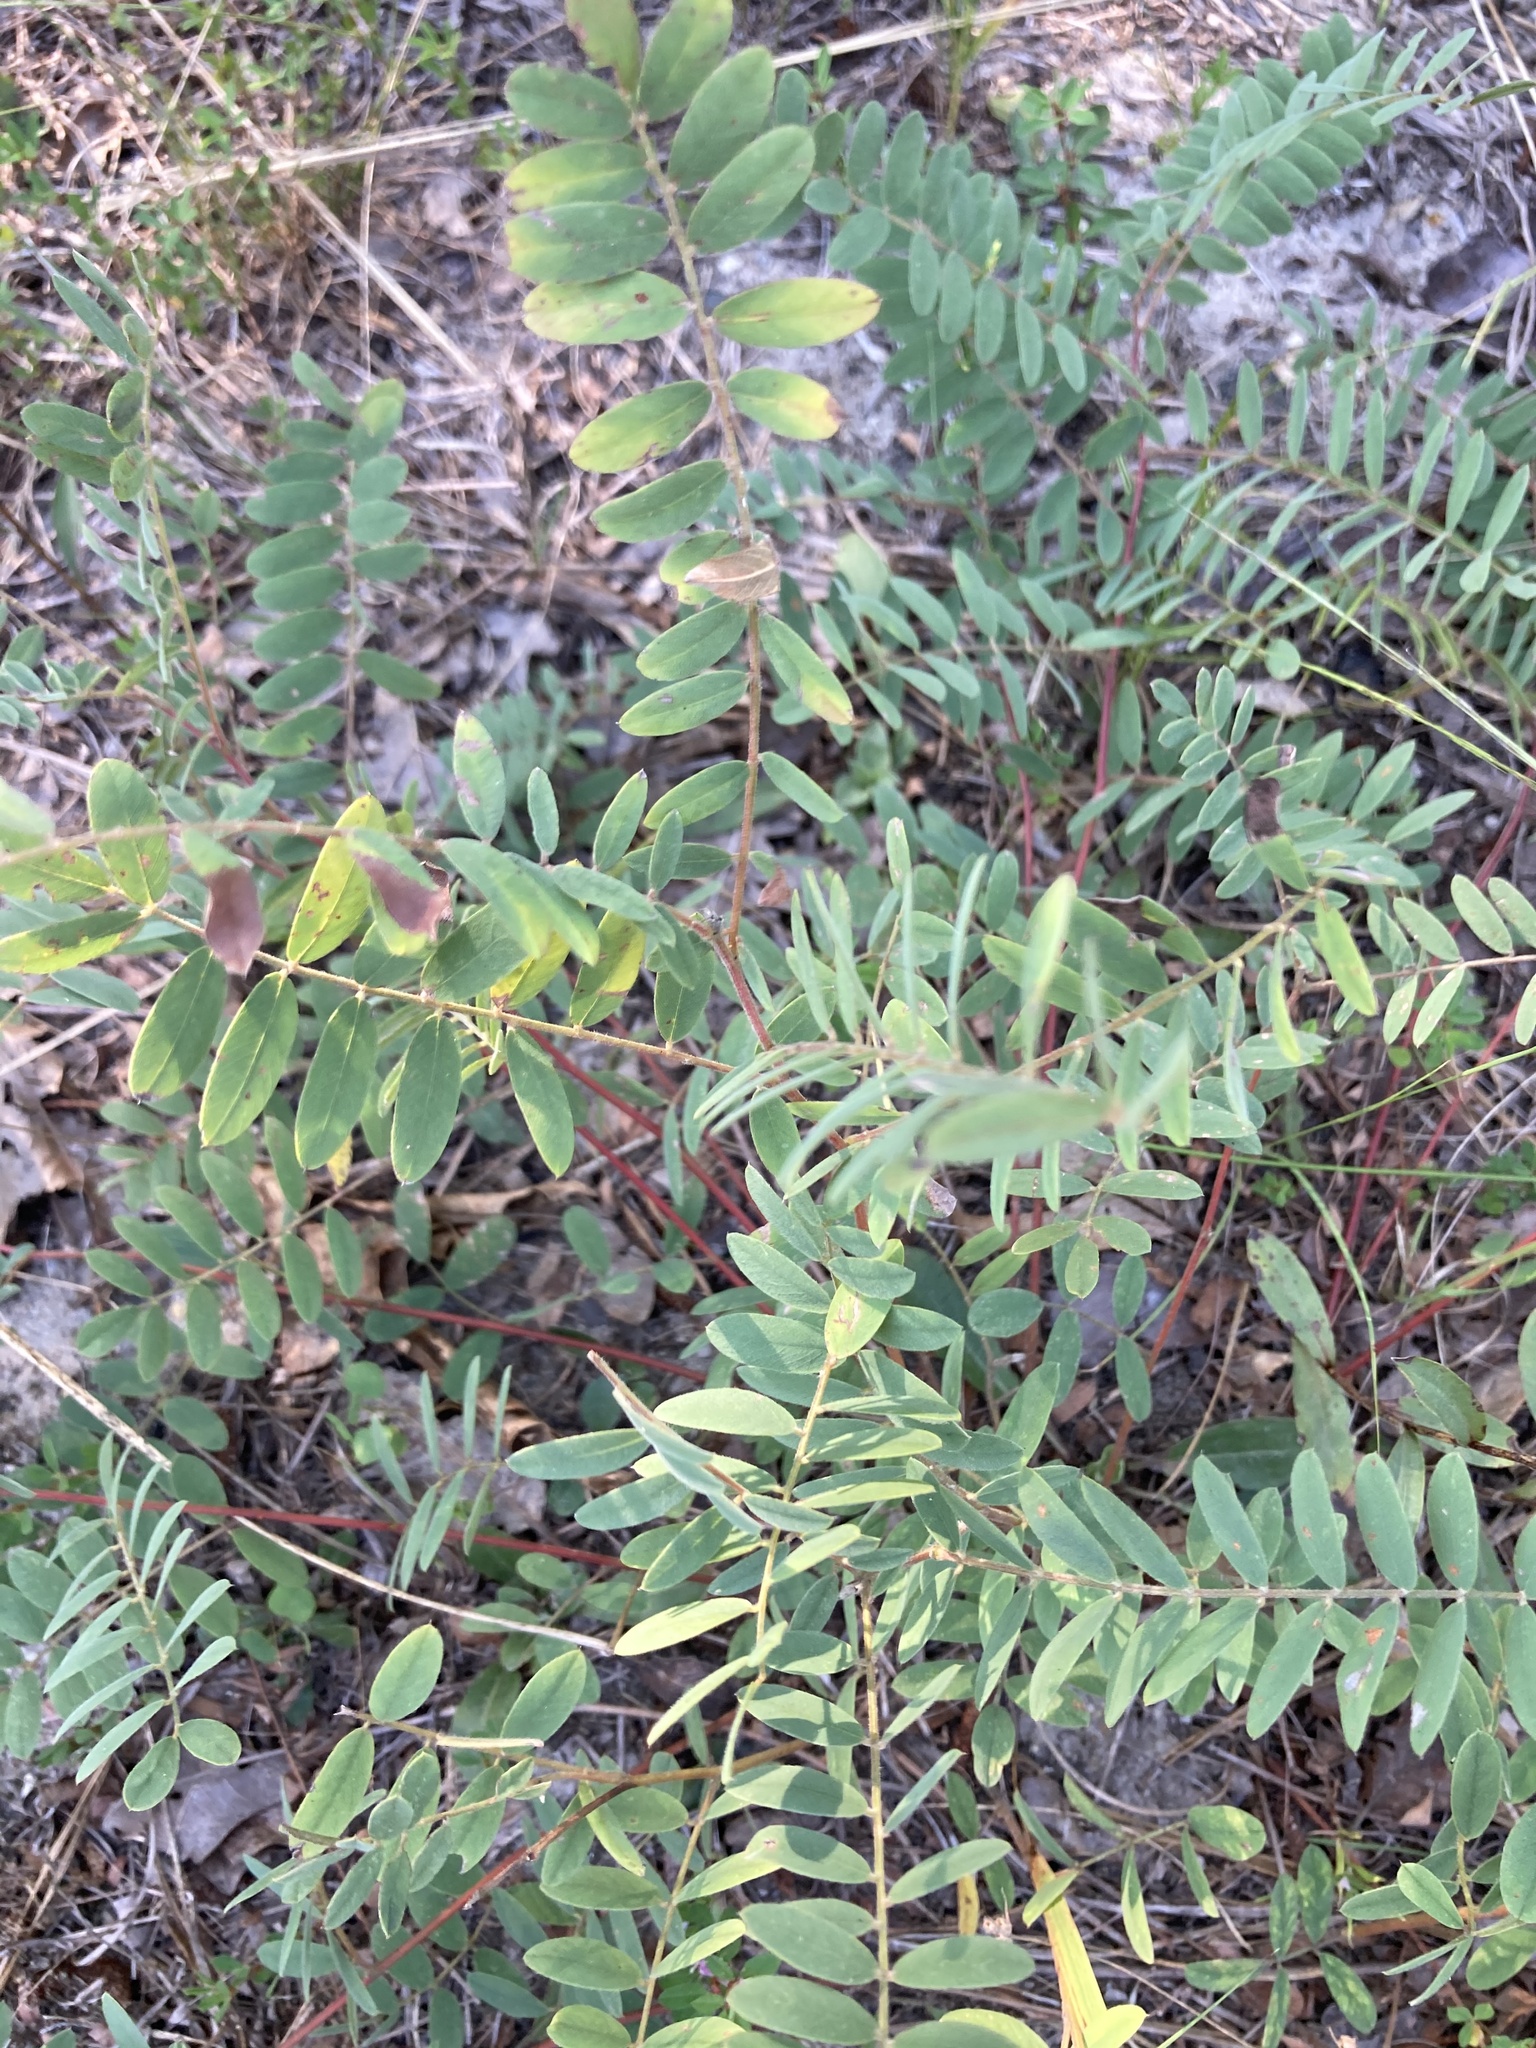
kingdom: Plantae
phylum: Tracheophyta
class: Magnoliopsida
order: Fabales
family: Fabaceae
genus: Tephrosia
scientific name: Tephrosia virginiana
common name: Rabbit-pea
